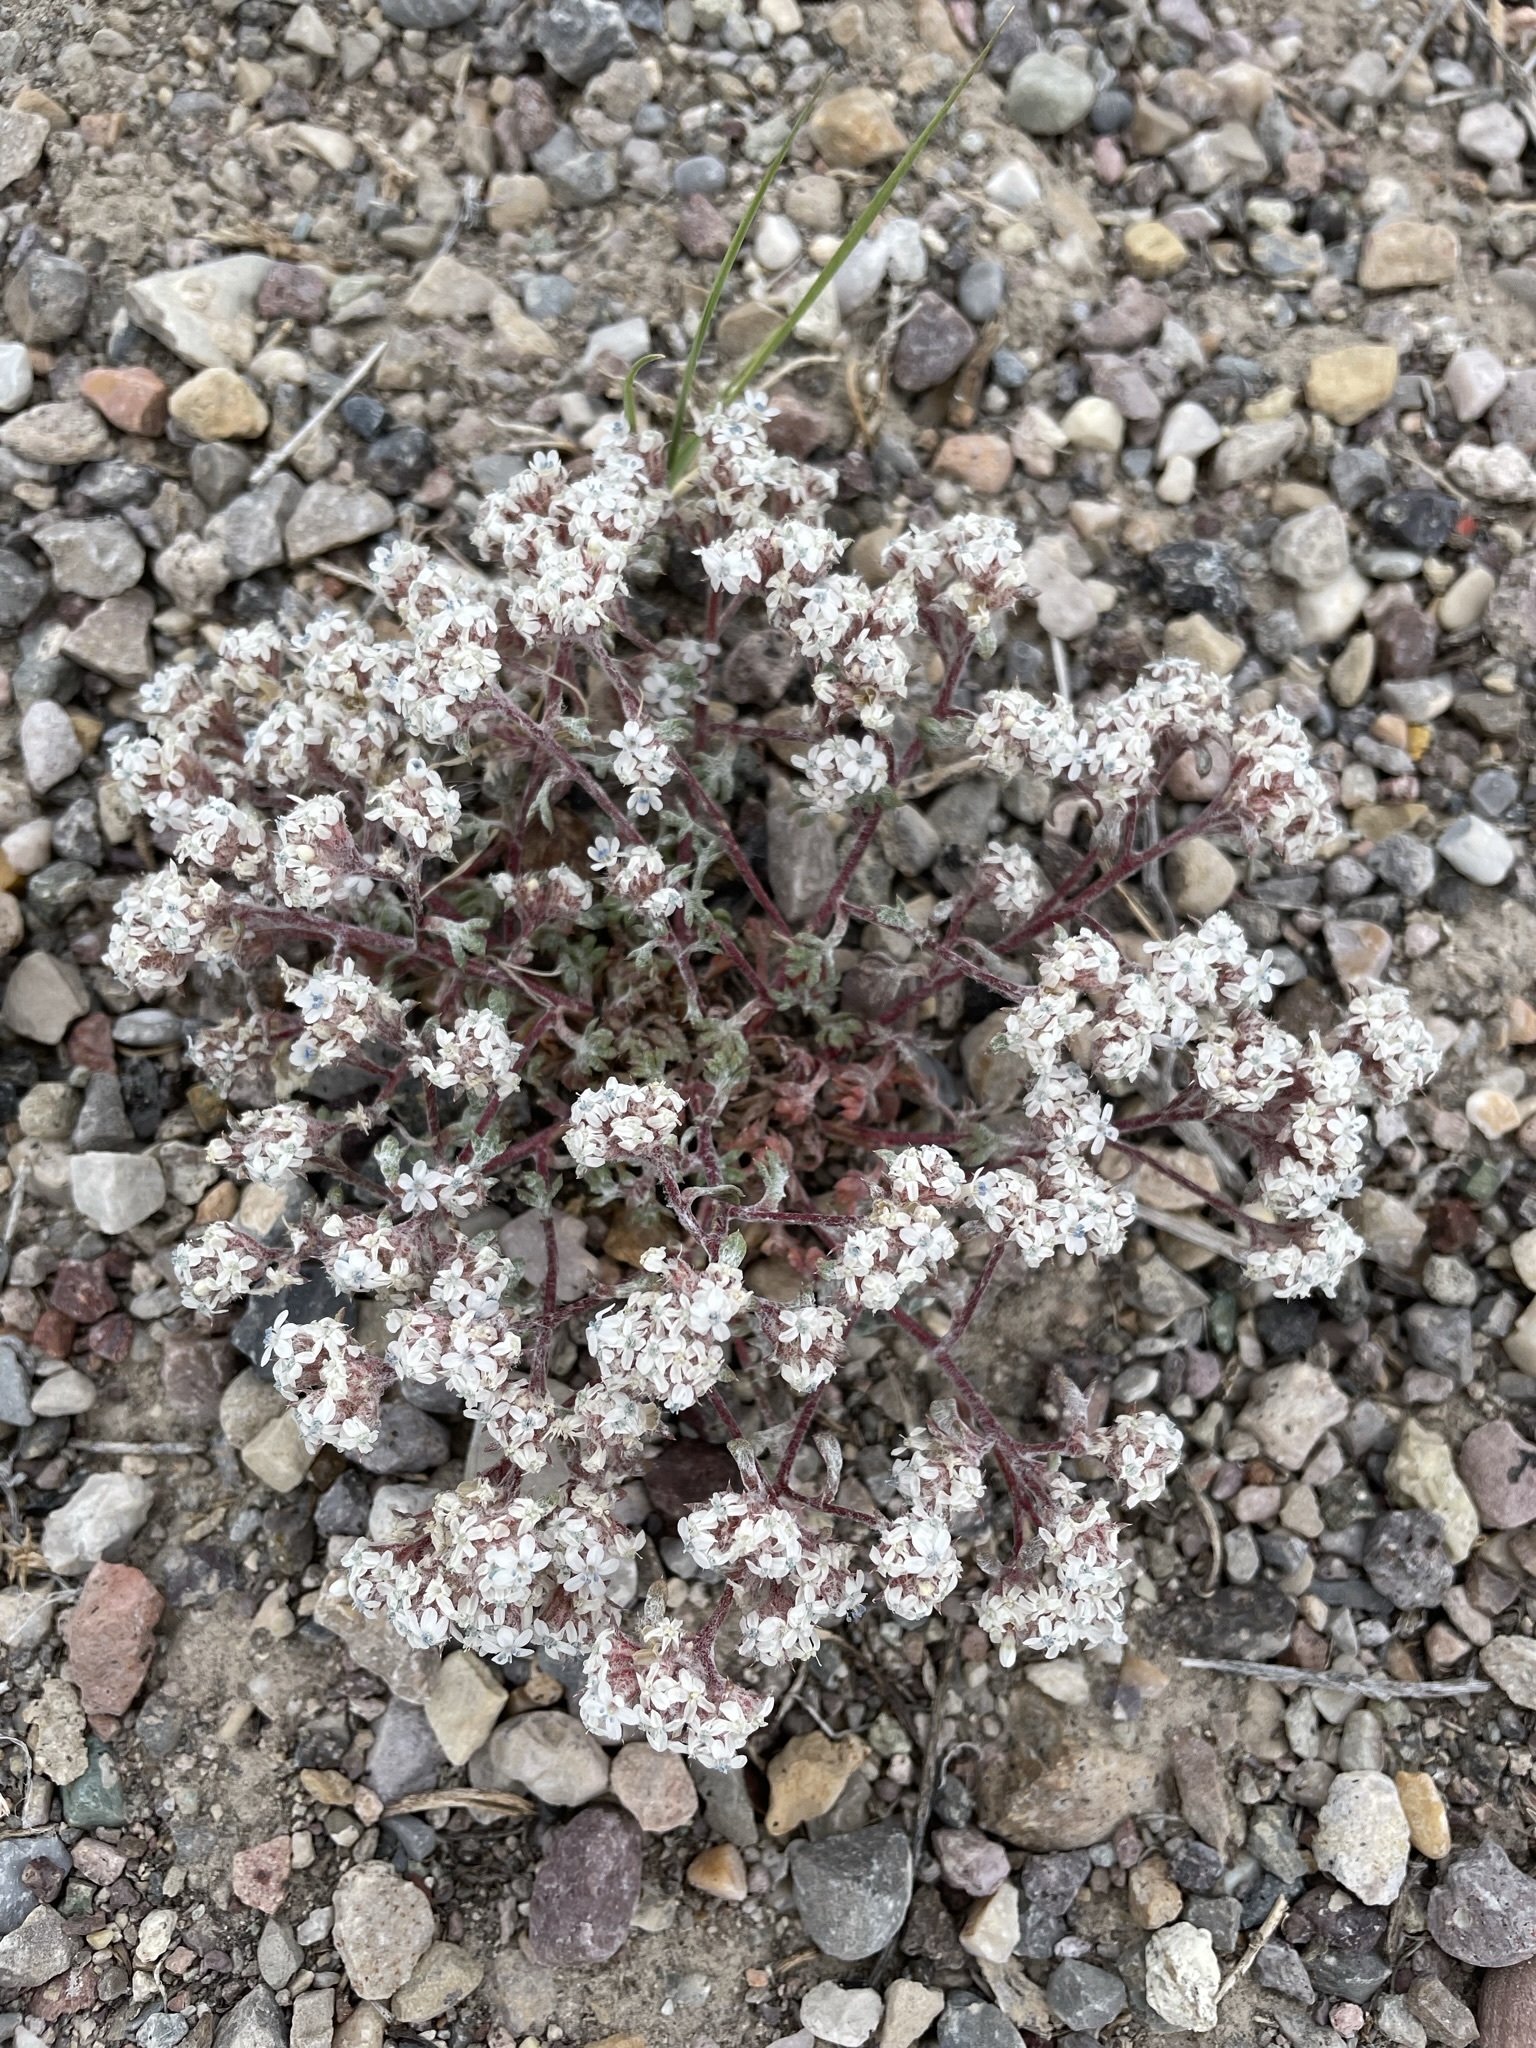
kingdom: Plantae
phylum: Tracheophyta
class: Magnoliopsida
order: Ericales
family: Polemoniaceae
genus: Ipomopsis
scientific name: Ipomopsis congesta
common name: Ball-head gilia
